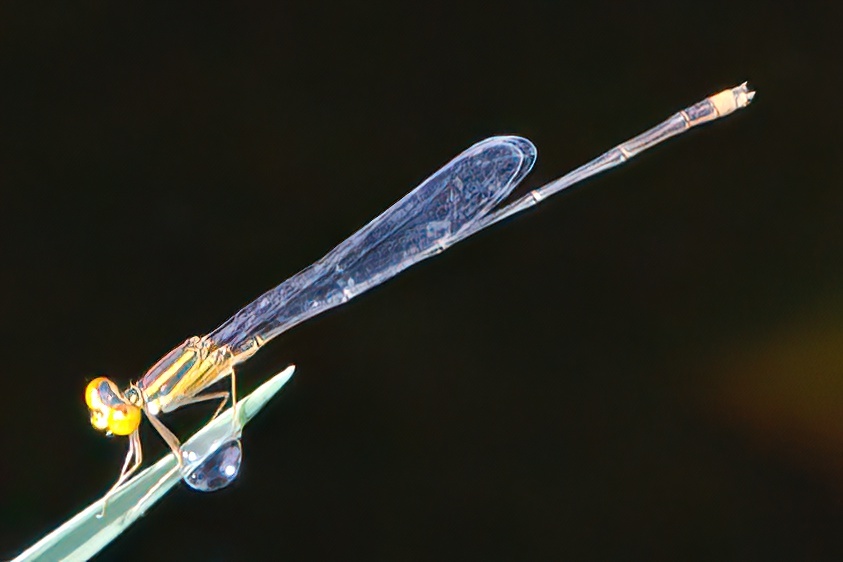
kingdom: Animalia
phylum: Arthropoda
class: Insecta
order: Odonata
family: Coenagrionidae
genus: Enallagma
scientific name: Enallagma pollutum
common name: Florida bluet
